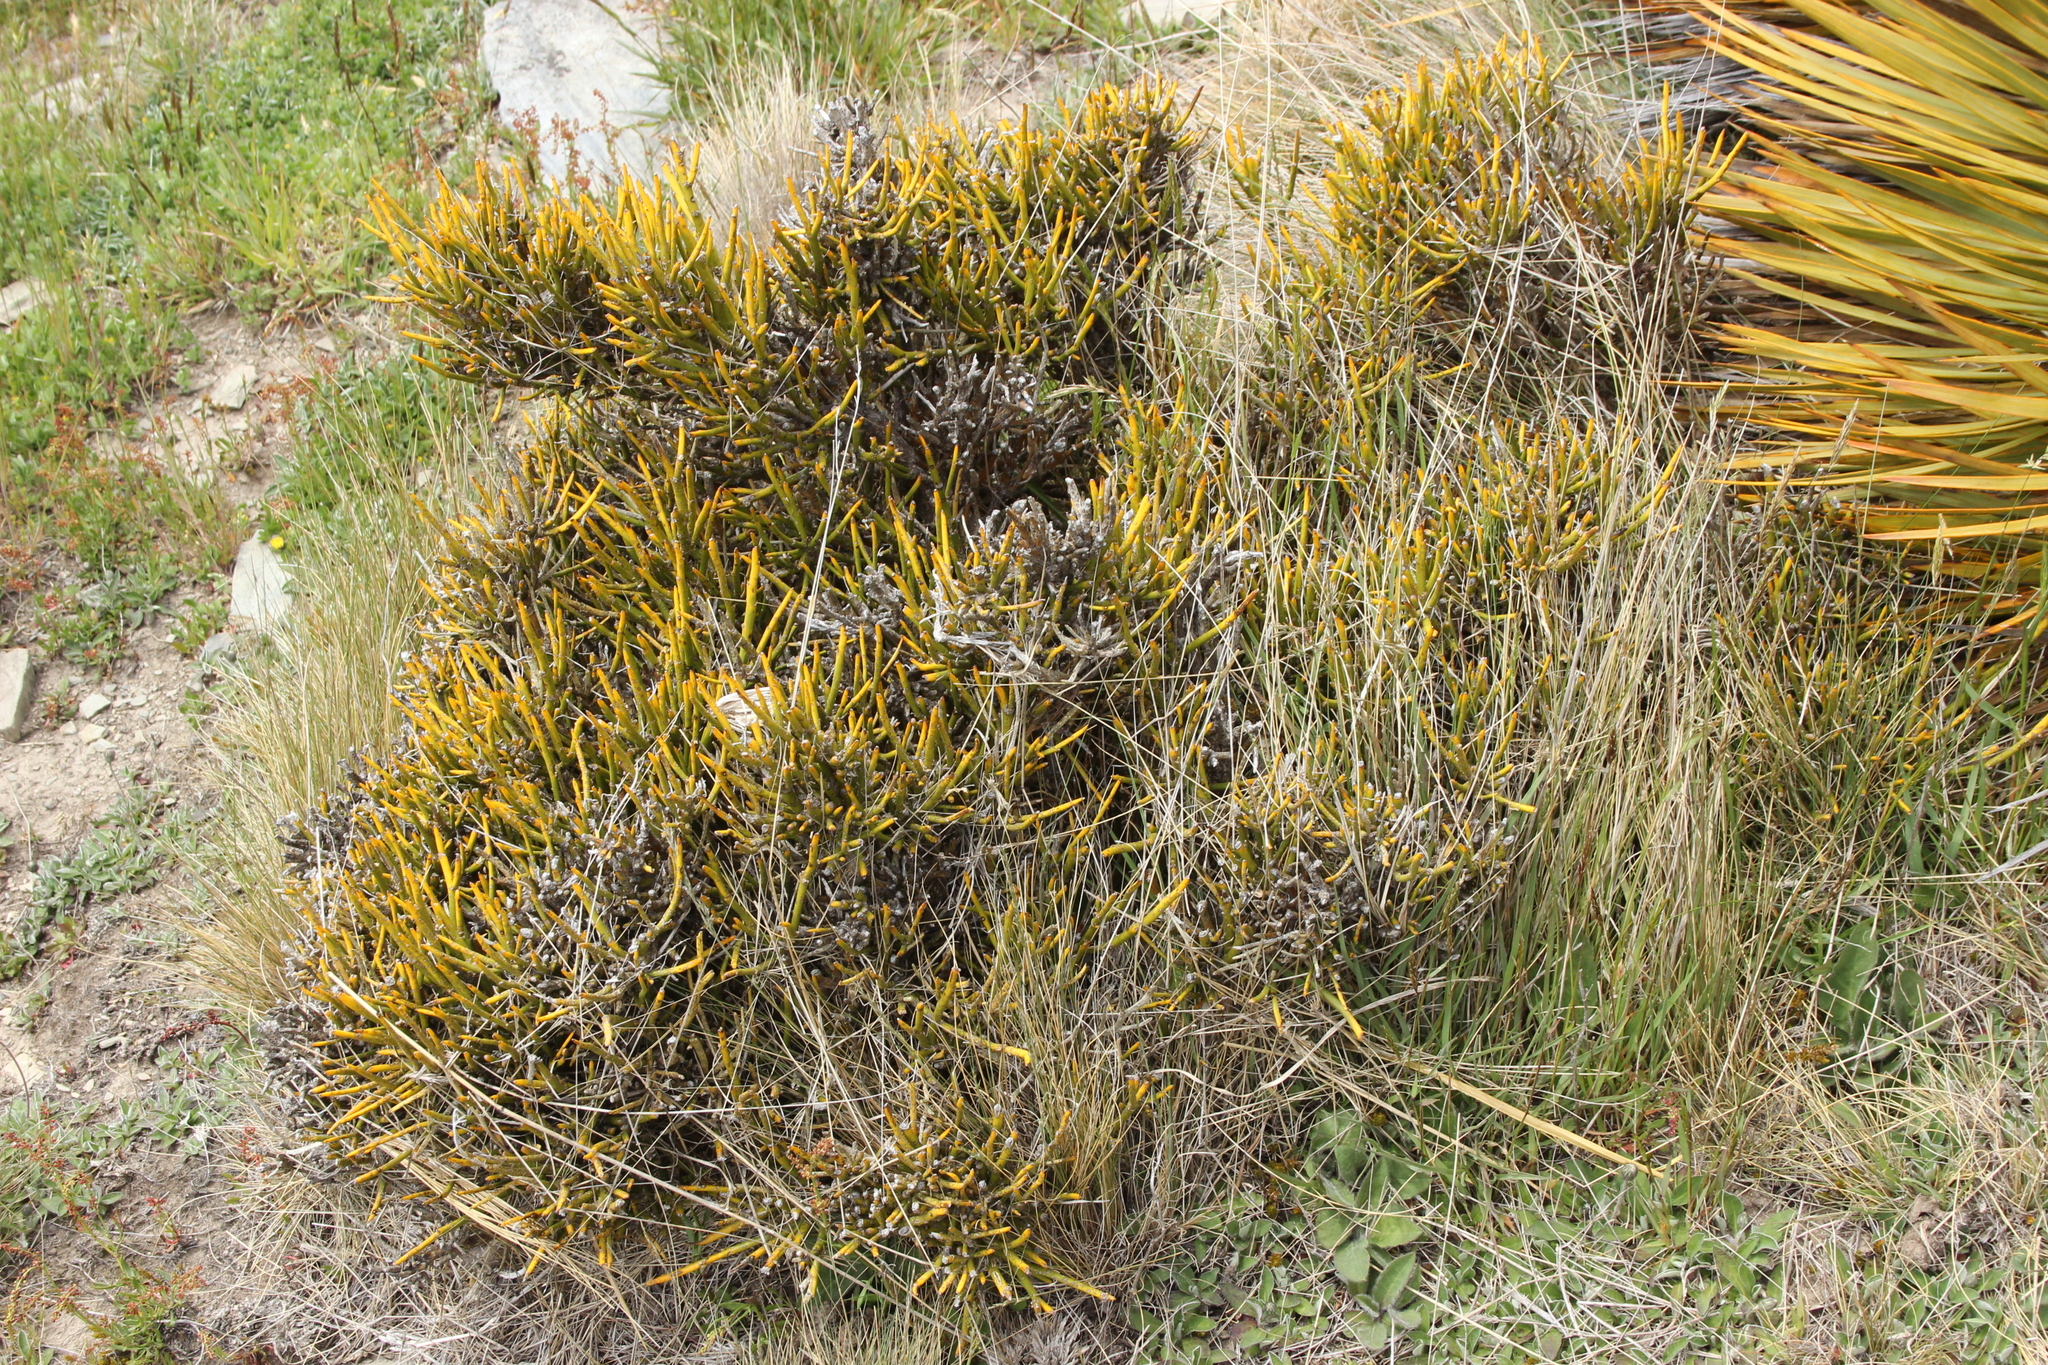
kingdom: Plantae
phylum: Tracheophyta
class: Magnoliopsida
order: Fabales
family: Fabaceae
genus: Carmichaelia
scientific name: Carmichaelia petriei
